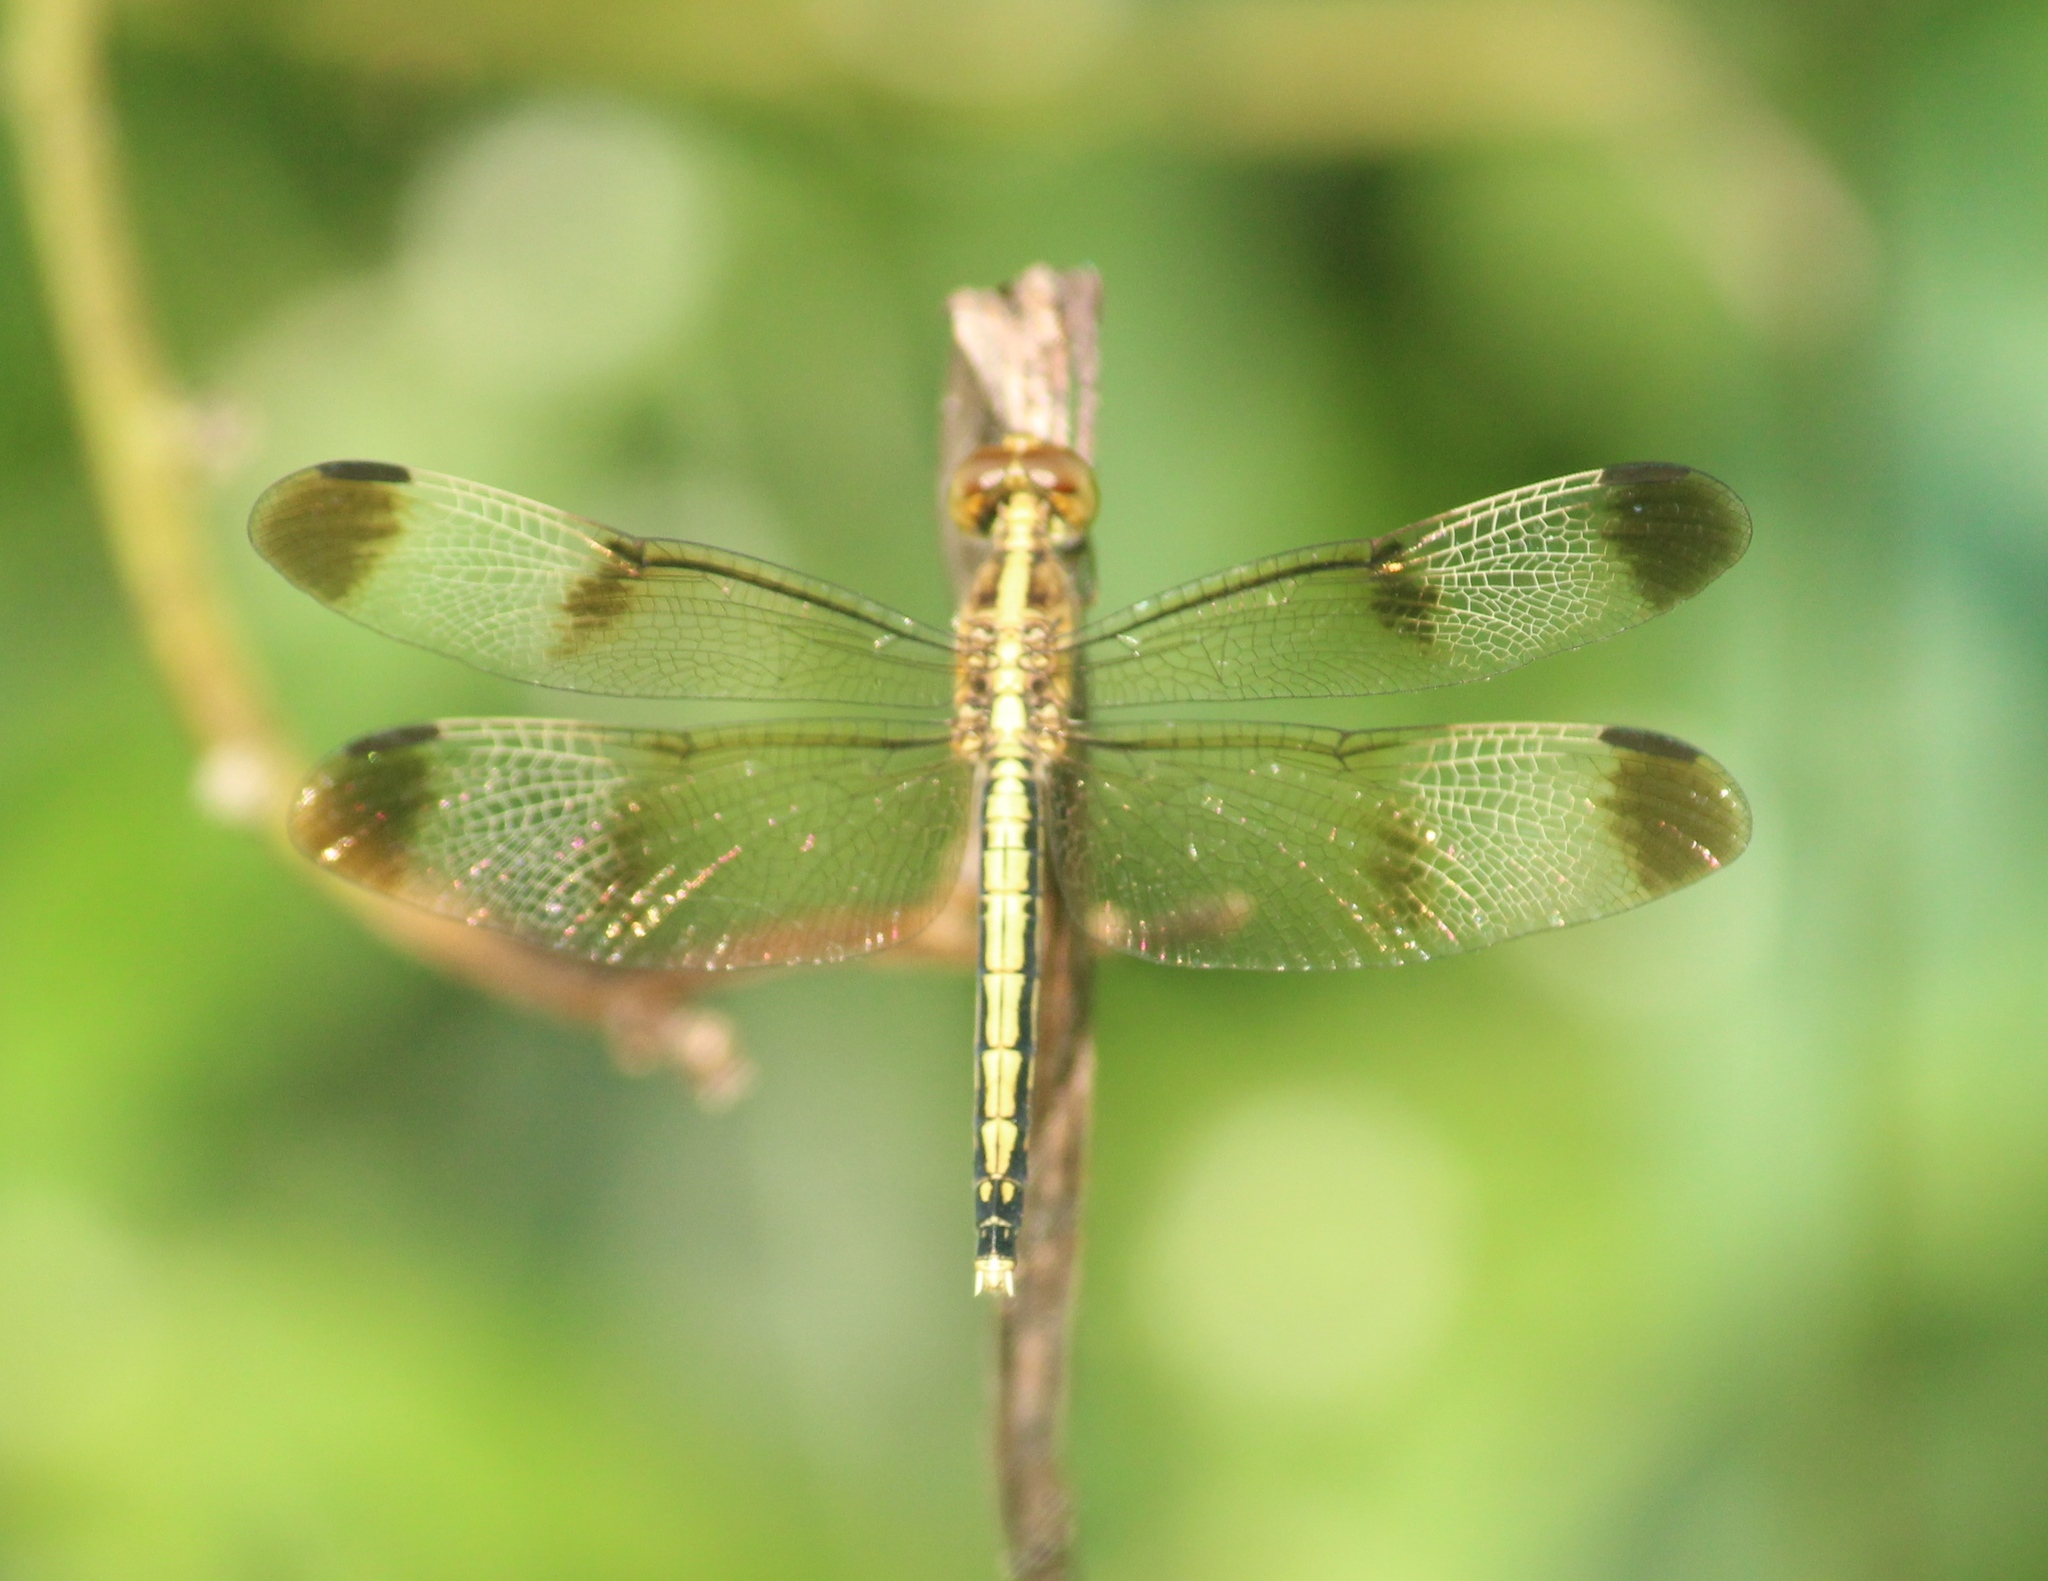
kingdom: Animalia
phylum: Arthropoda
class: Insecta
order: Odonata
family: Libellulidae
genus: Neurothemis
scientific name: Neurothemis tullia
